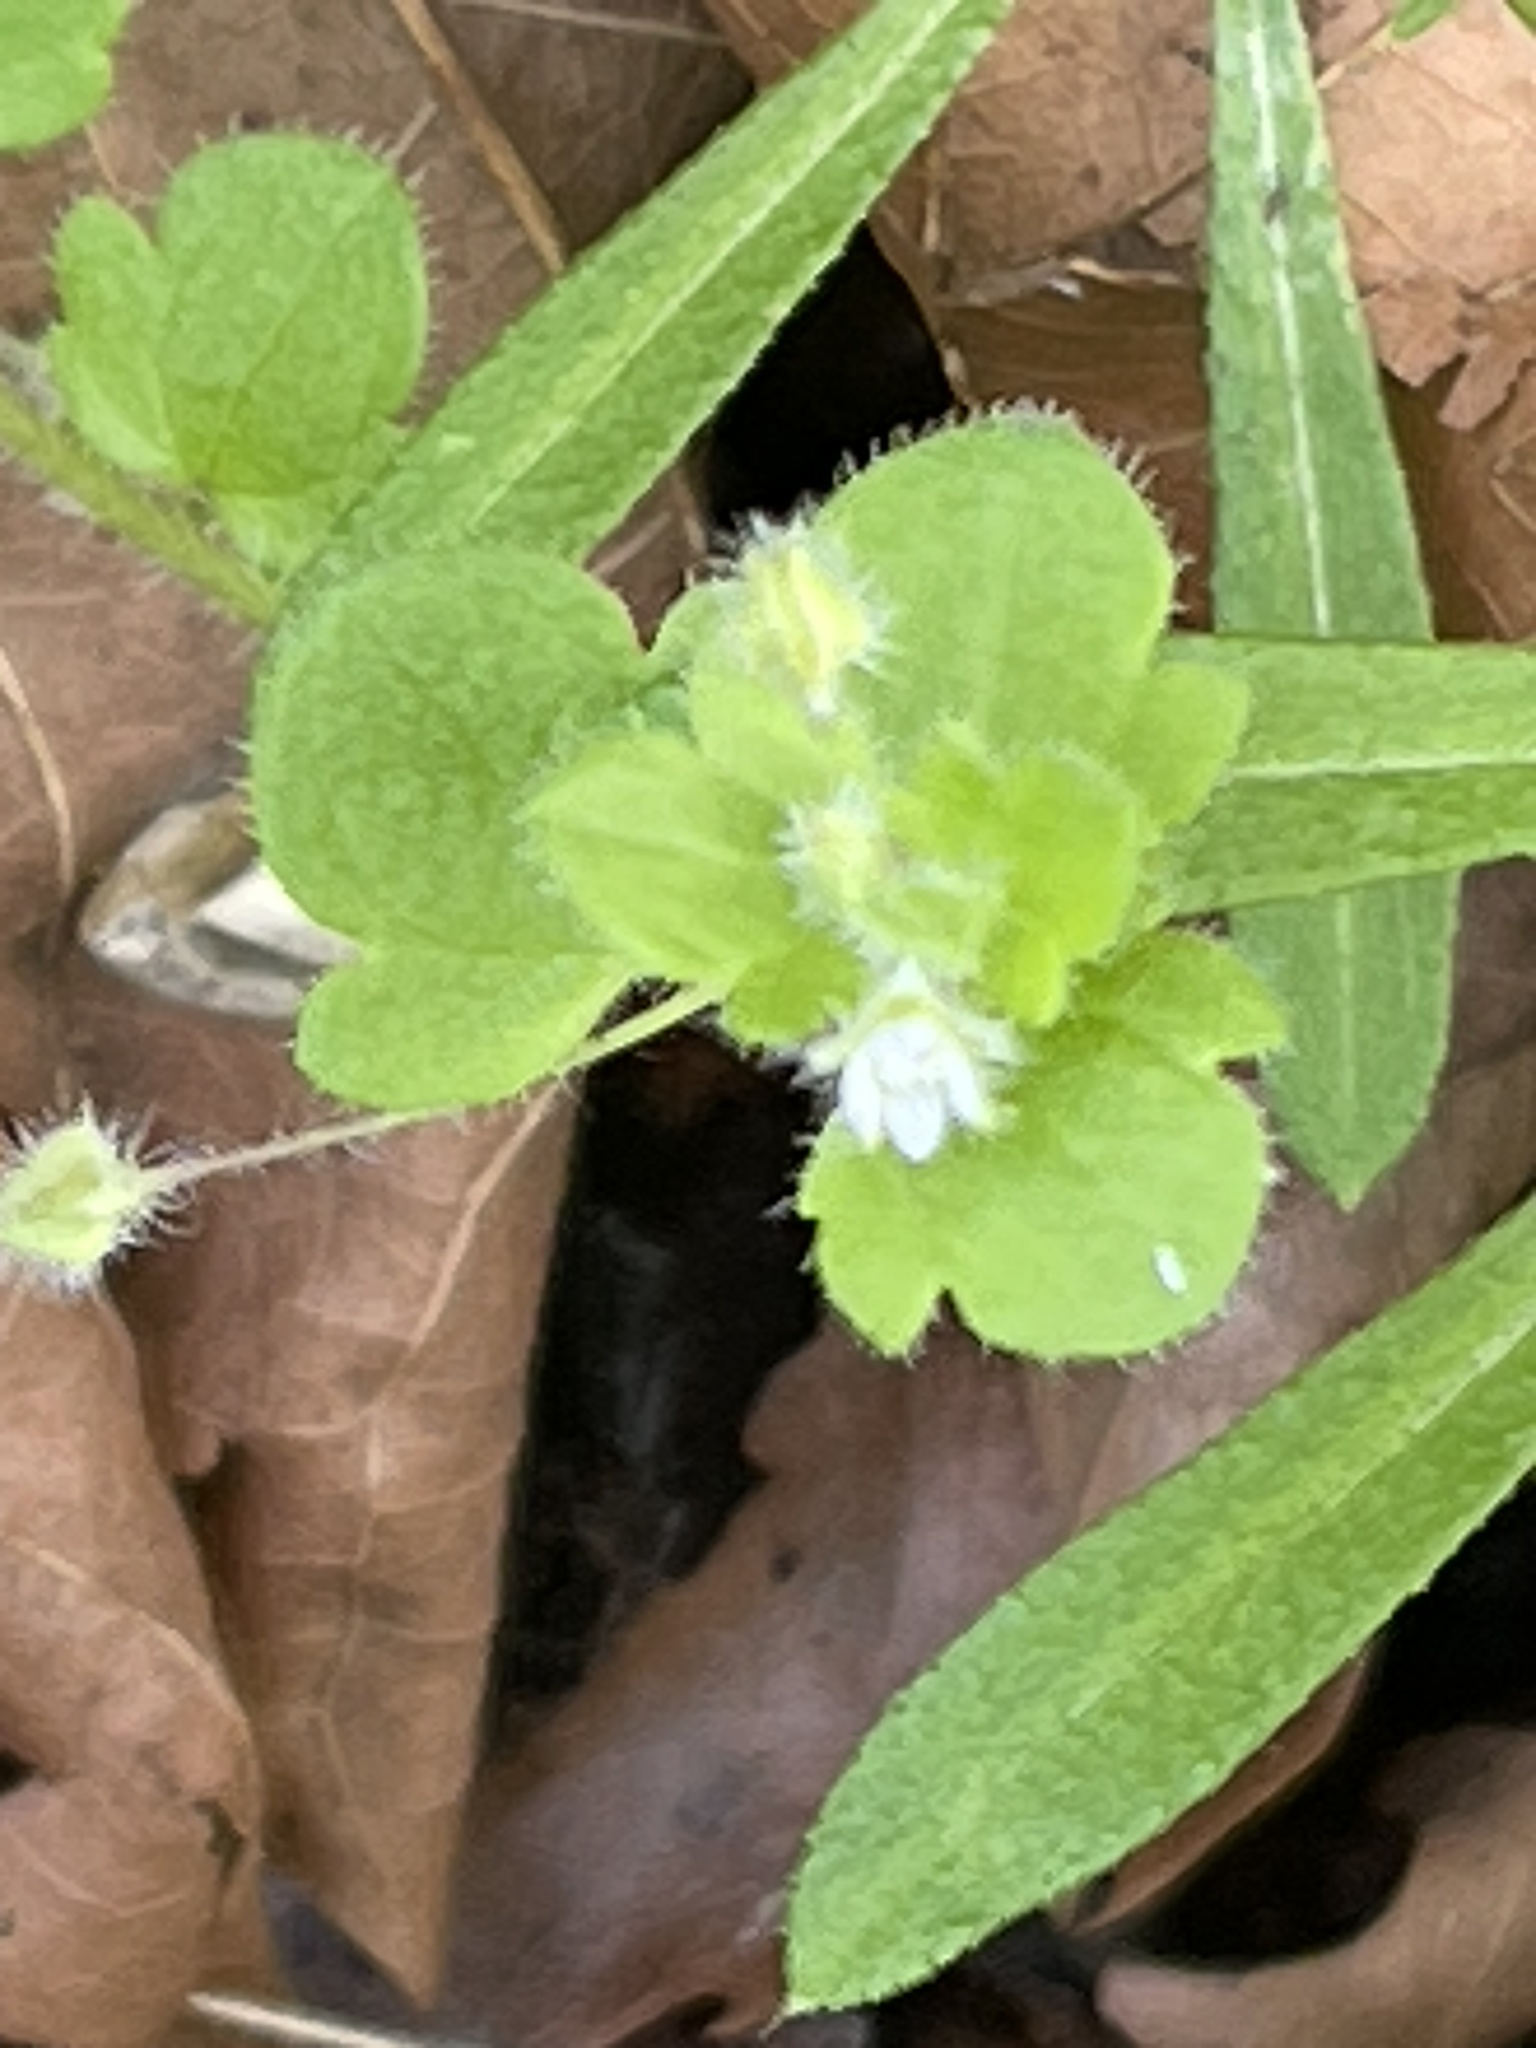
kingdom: Plantae
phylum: Tracheophyta
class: Magnoliopsida
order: Lamiales
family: Plantaginaceae
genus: Veronica
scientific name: Veronica sublobata
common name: False ivy-leaved speedwell
